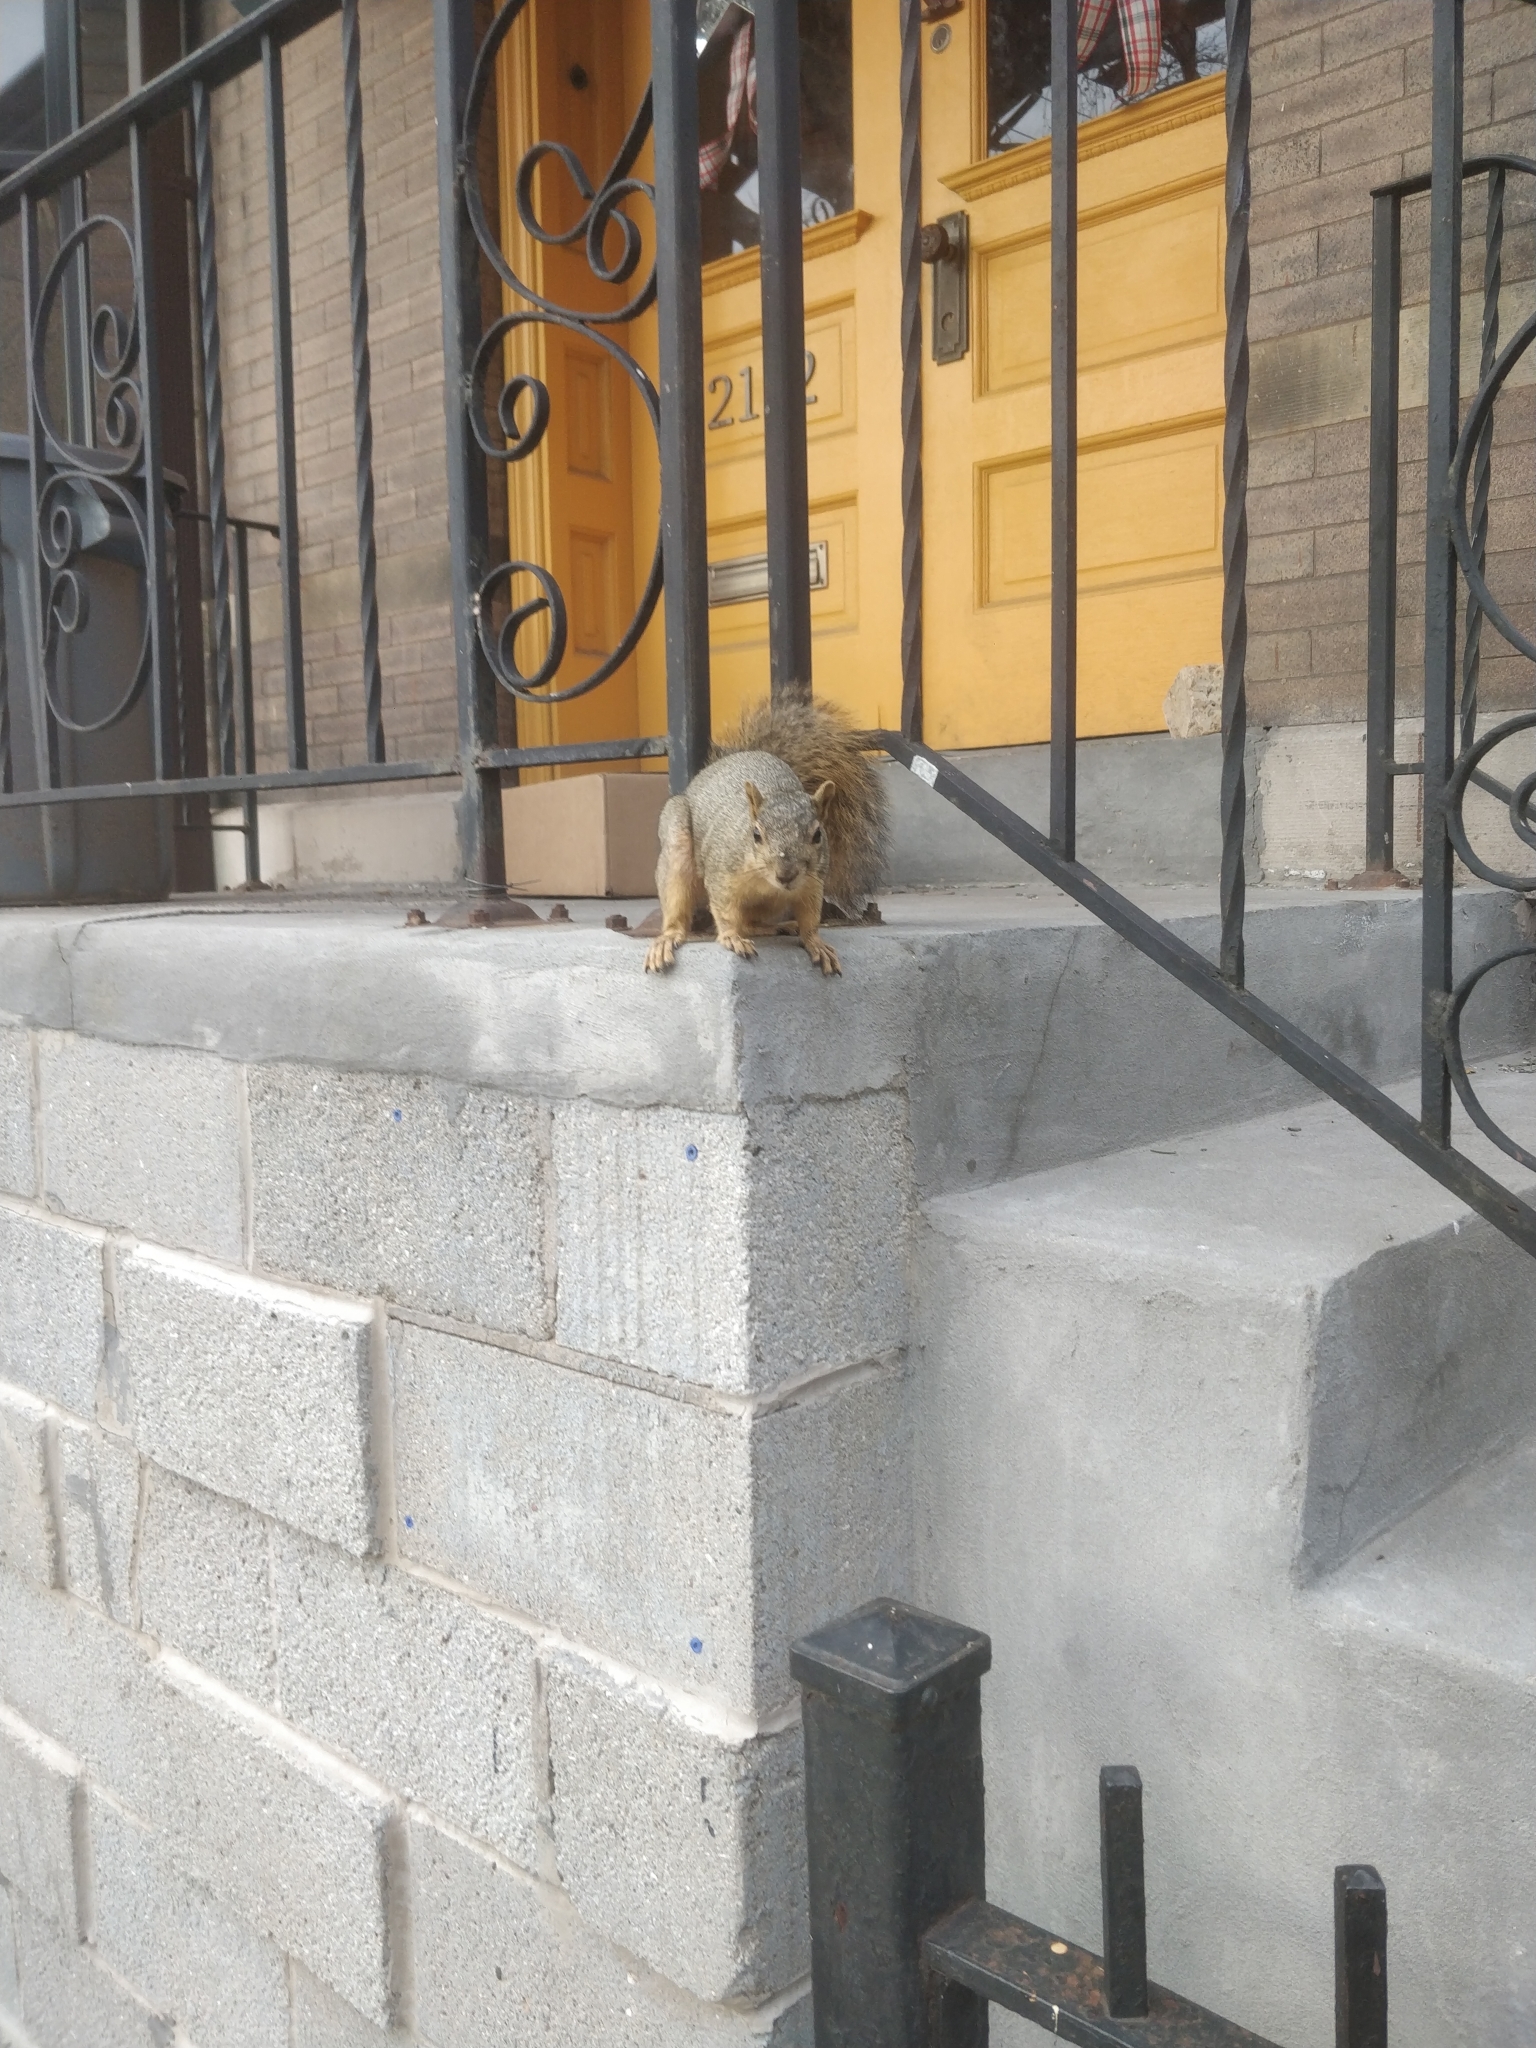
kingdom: Animalia
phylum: Chordata
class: Mammalia
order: Rodentia
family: Sciuridae
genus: Sciurus
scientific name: Sciurus niger
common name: Fox squirrel
